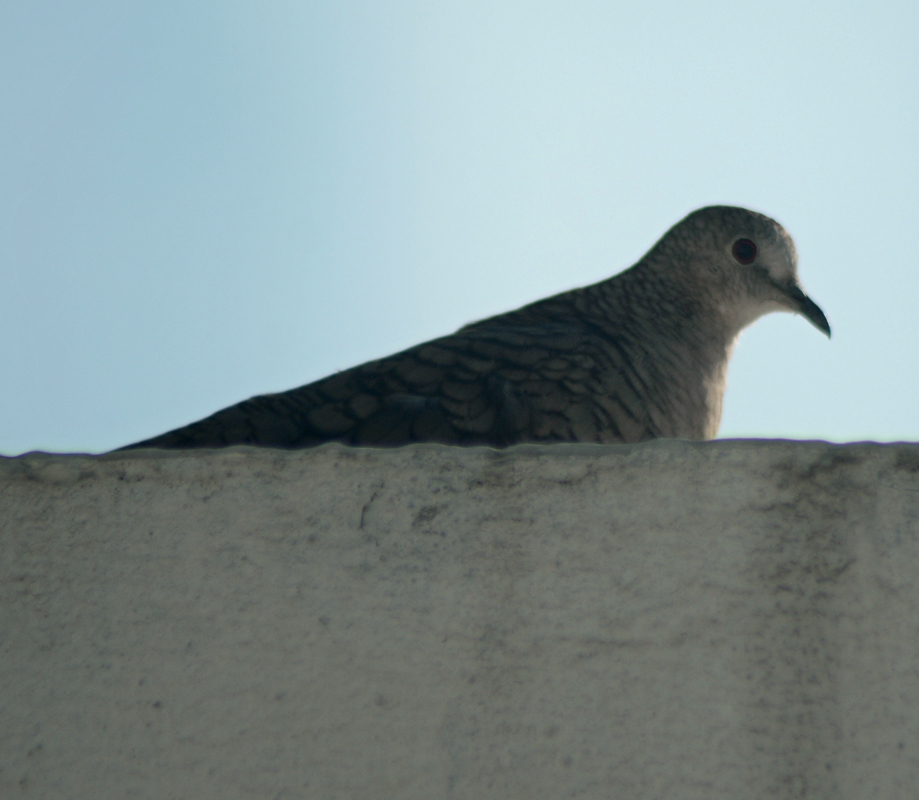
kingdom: Animalia
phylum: Chordata
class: Aves
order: Columbiformes
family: Columbidae
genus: Columbina
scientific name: Columbina inca
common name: Inca dove
